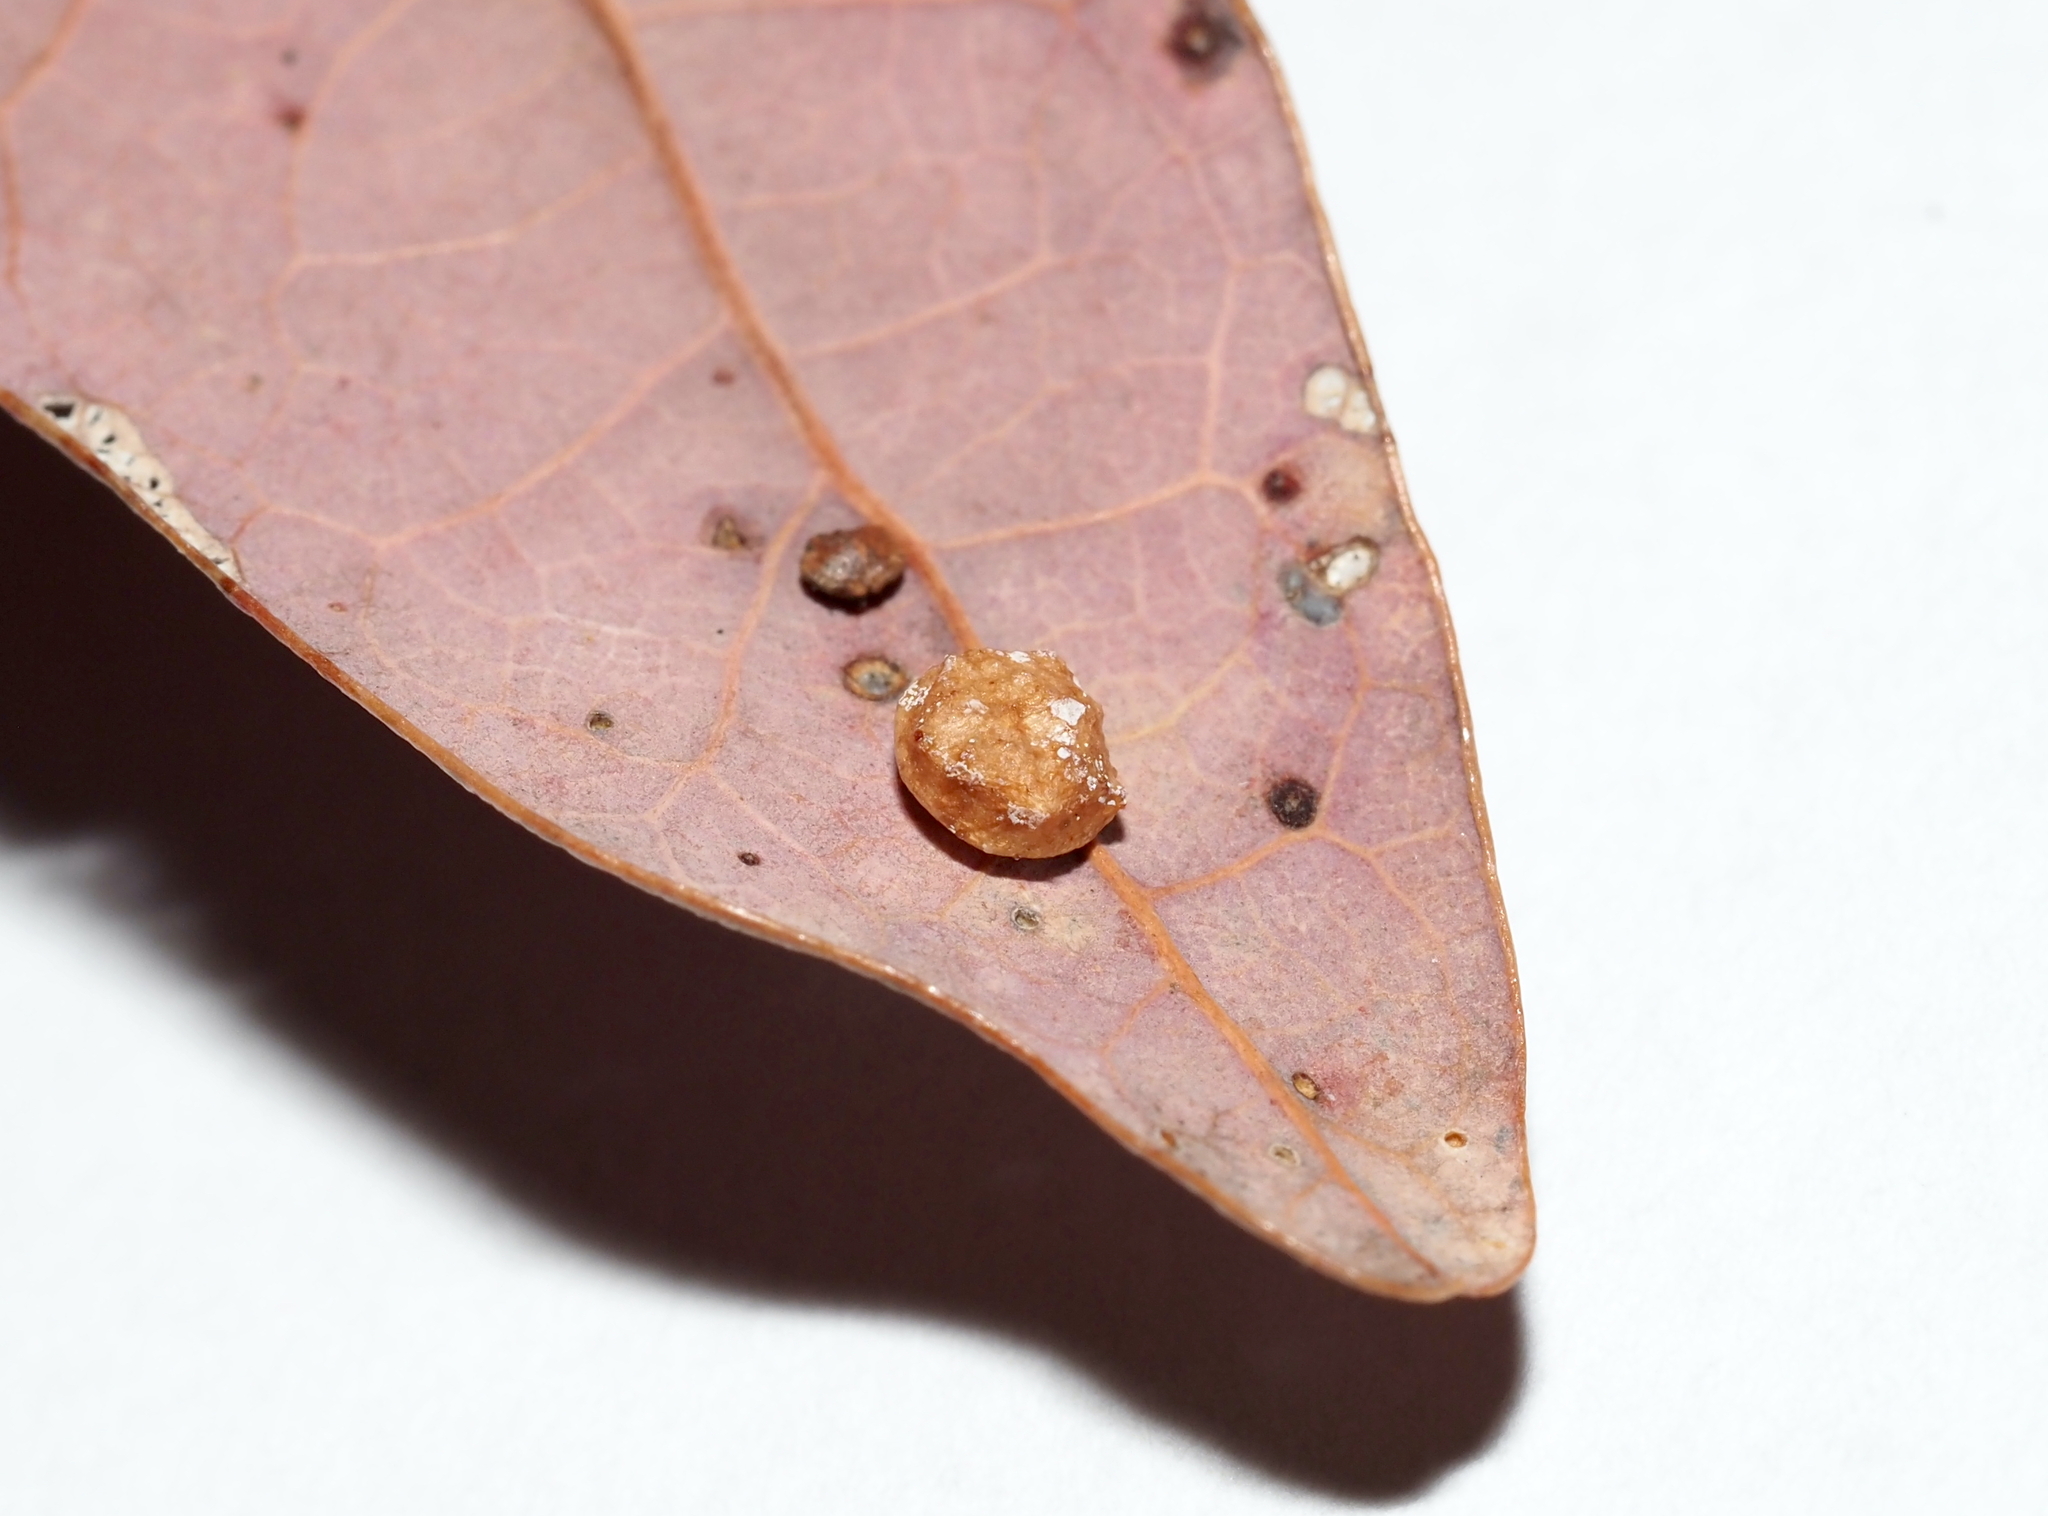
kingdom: Animalia
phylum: Arthropoda
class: Insecta
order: Hymenoptera
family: Cynipidae
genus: Phylloteras
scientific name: Phylloteras
